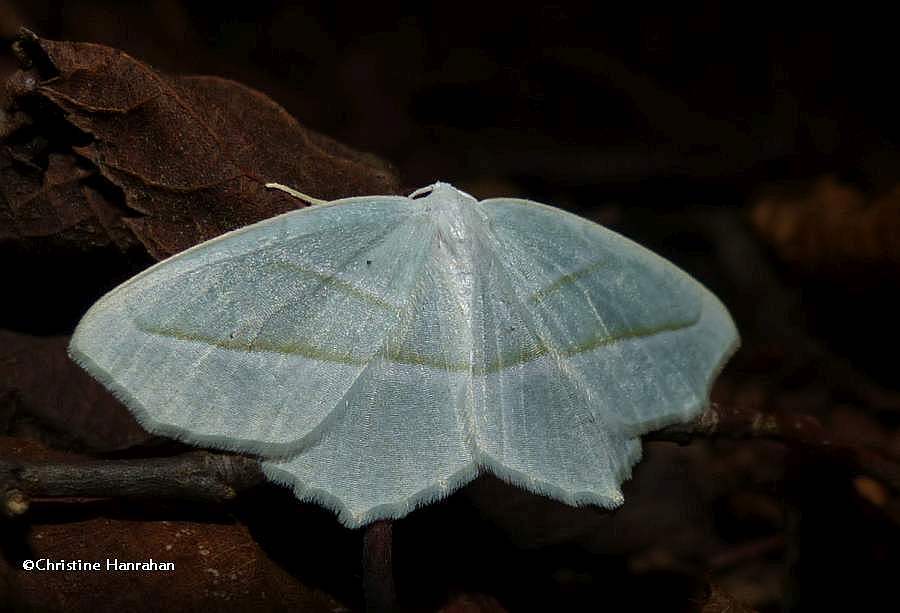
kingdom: Animalia
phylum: Arthropoda
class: Insecta
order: Lepidoptera
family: Geometridae
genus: Campaea
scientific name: Campaea perlata
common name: Fringed looper
